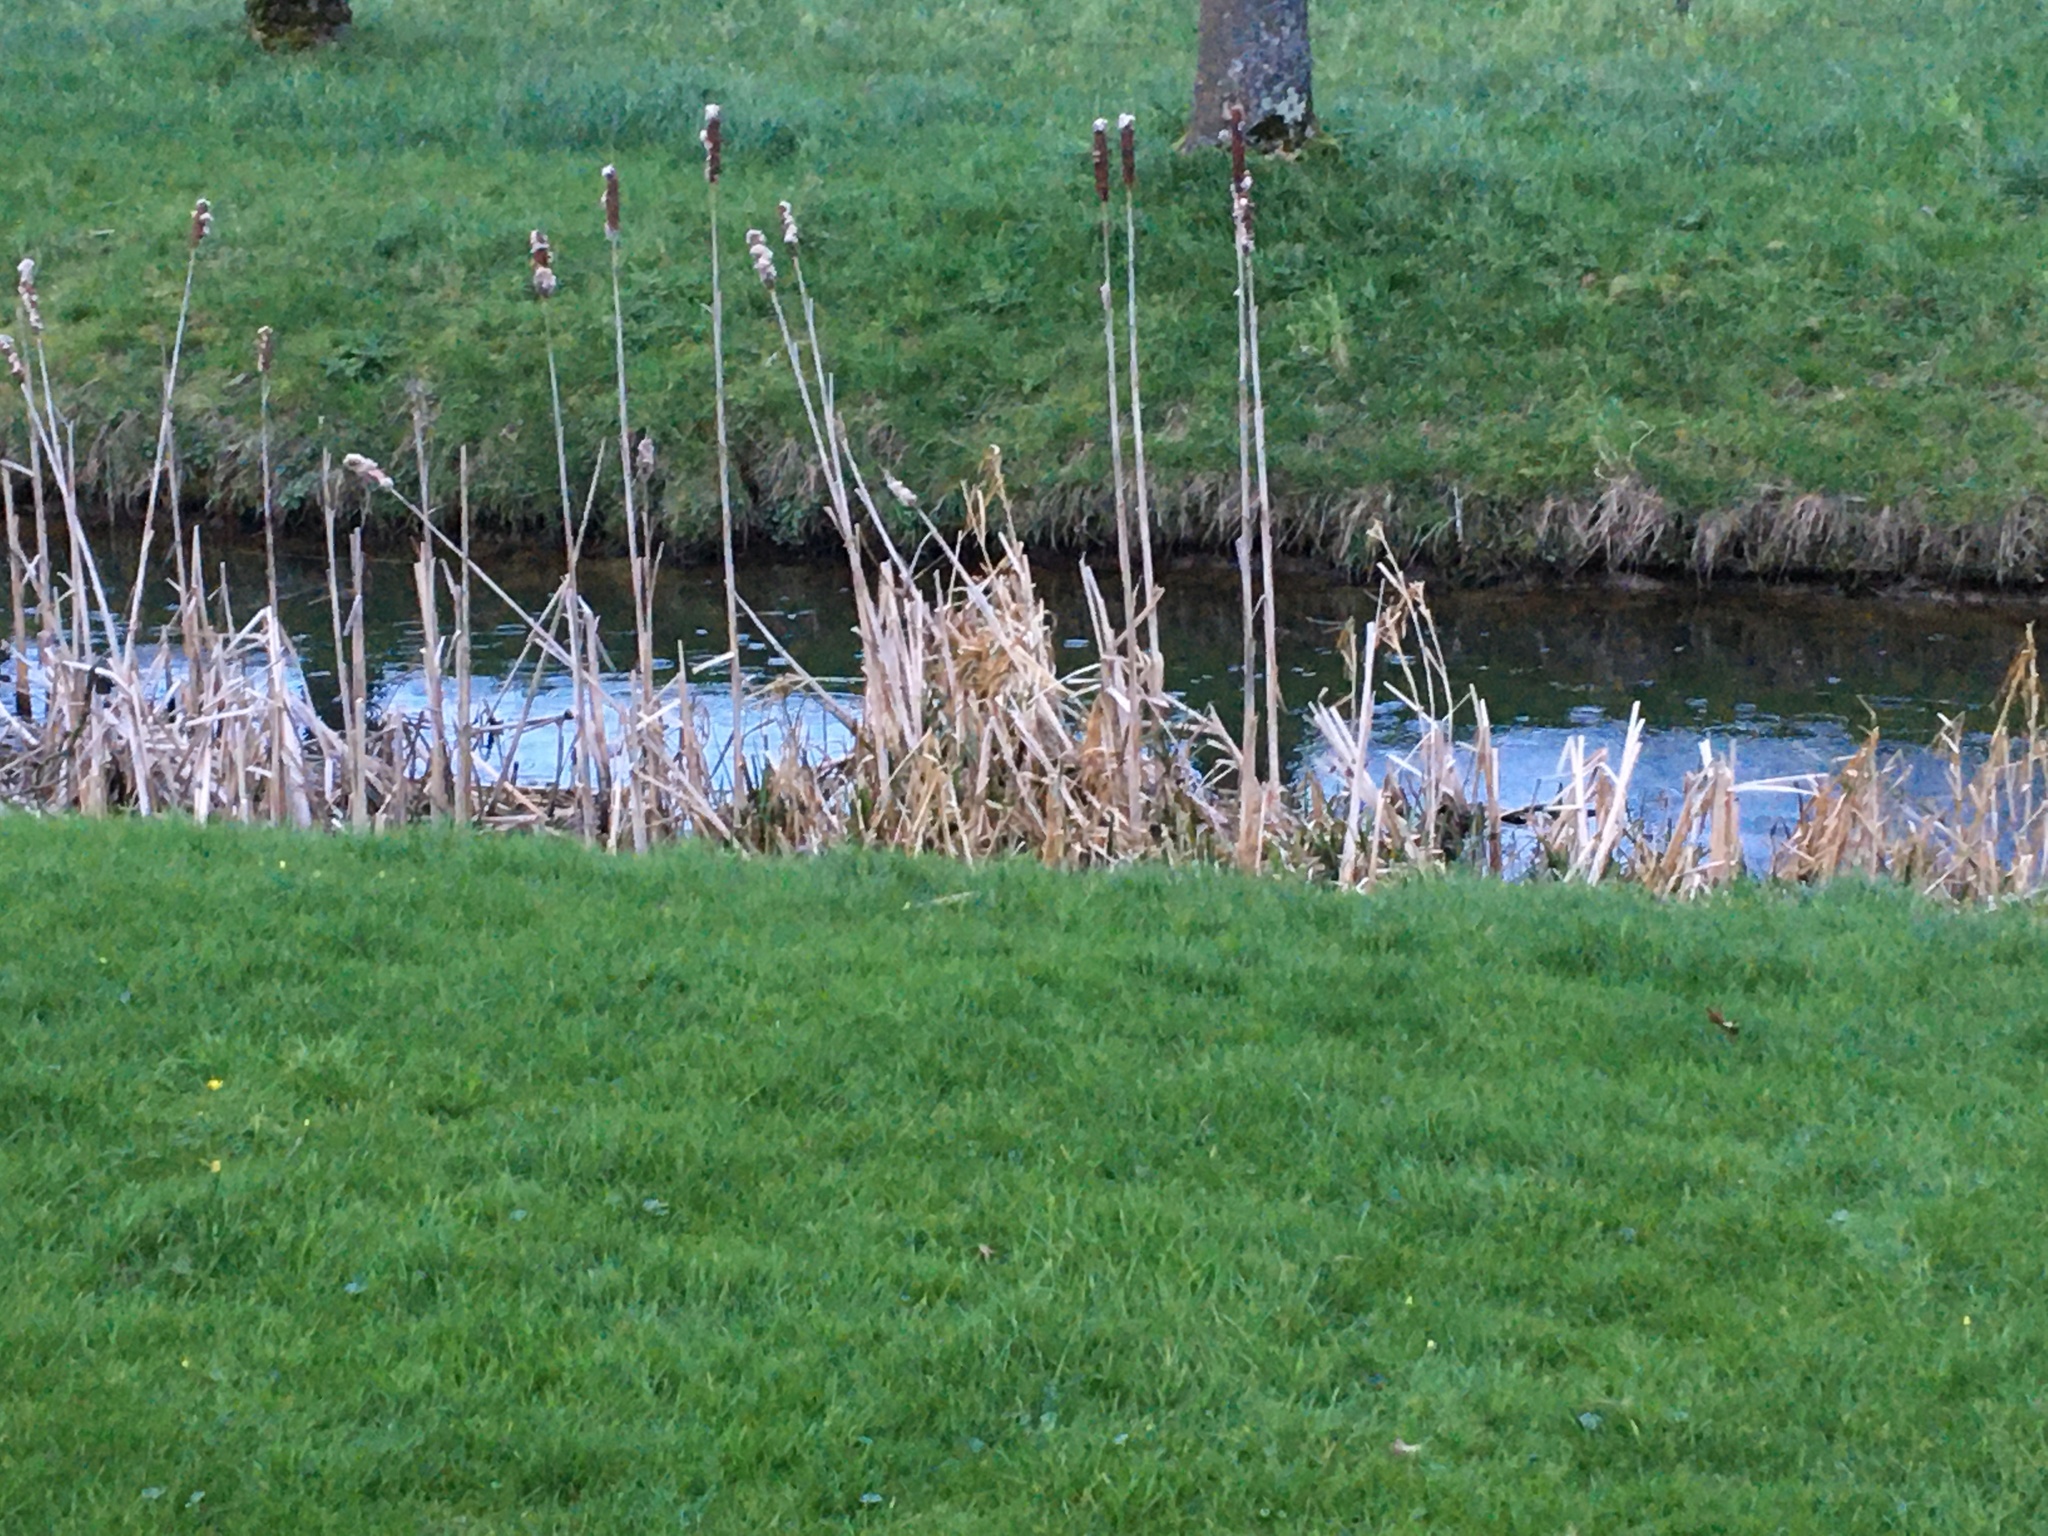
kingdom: Plantae
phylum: Tracheophyta
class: Liliopsida
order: Poales
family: Typhaceae
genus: Typha
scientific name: Typha latifolia
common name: Broadleaf cattail
